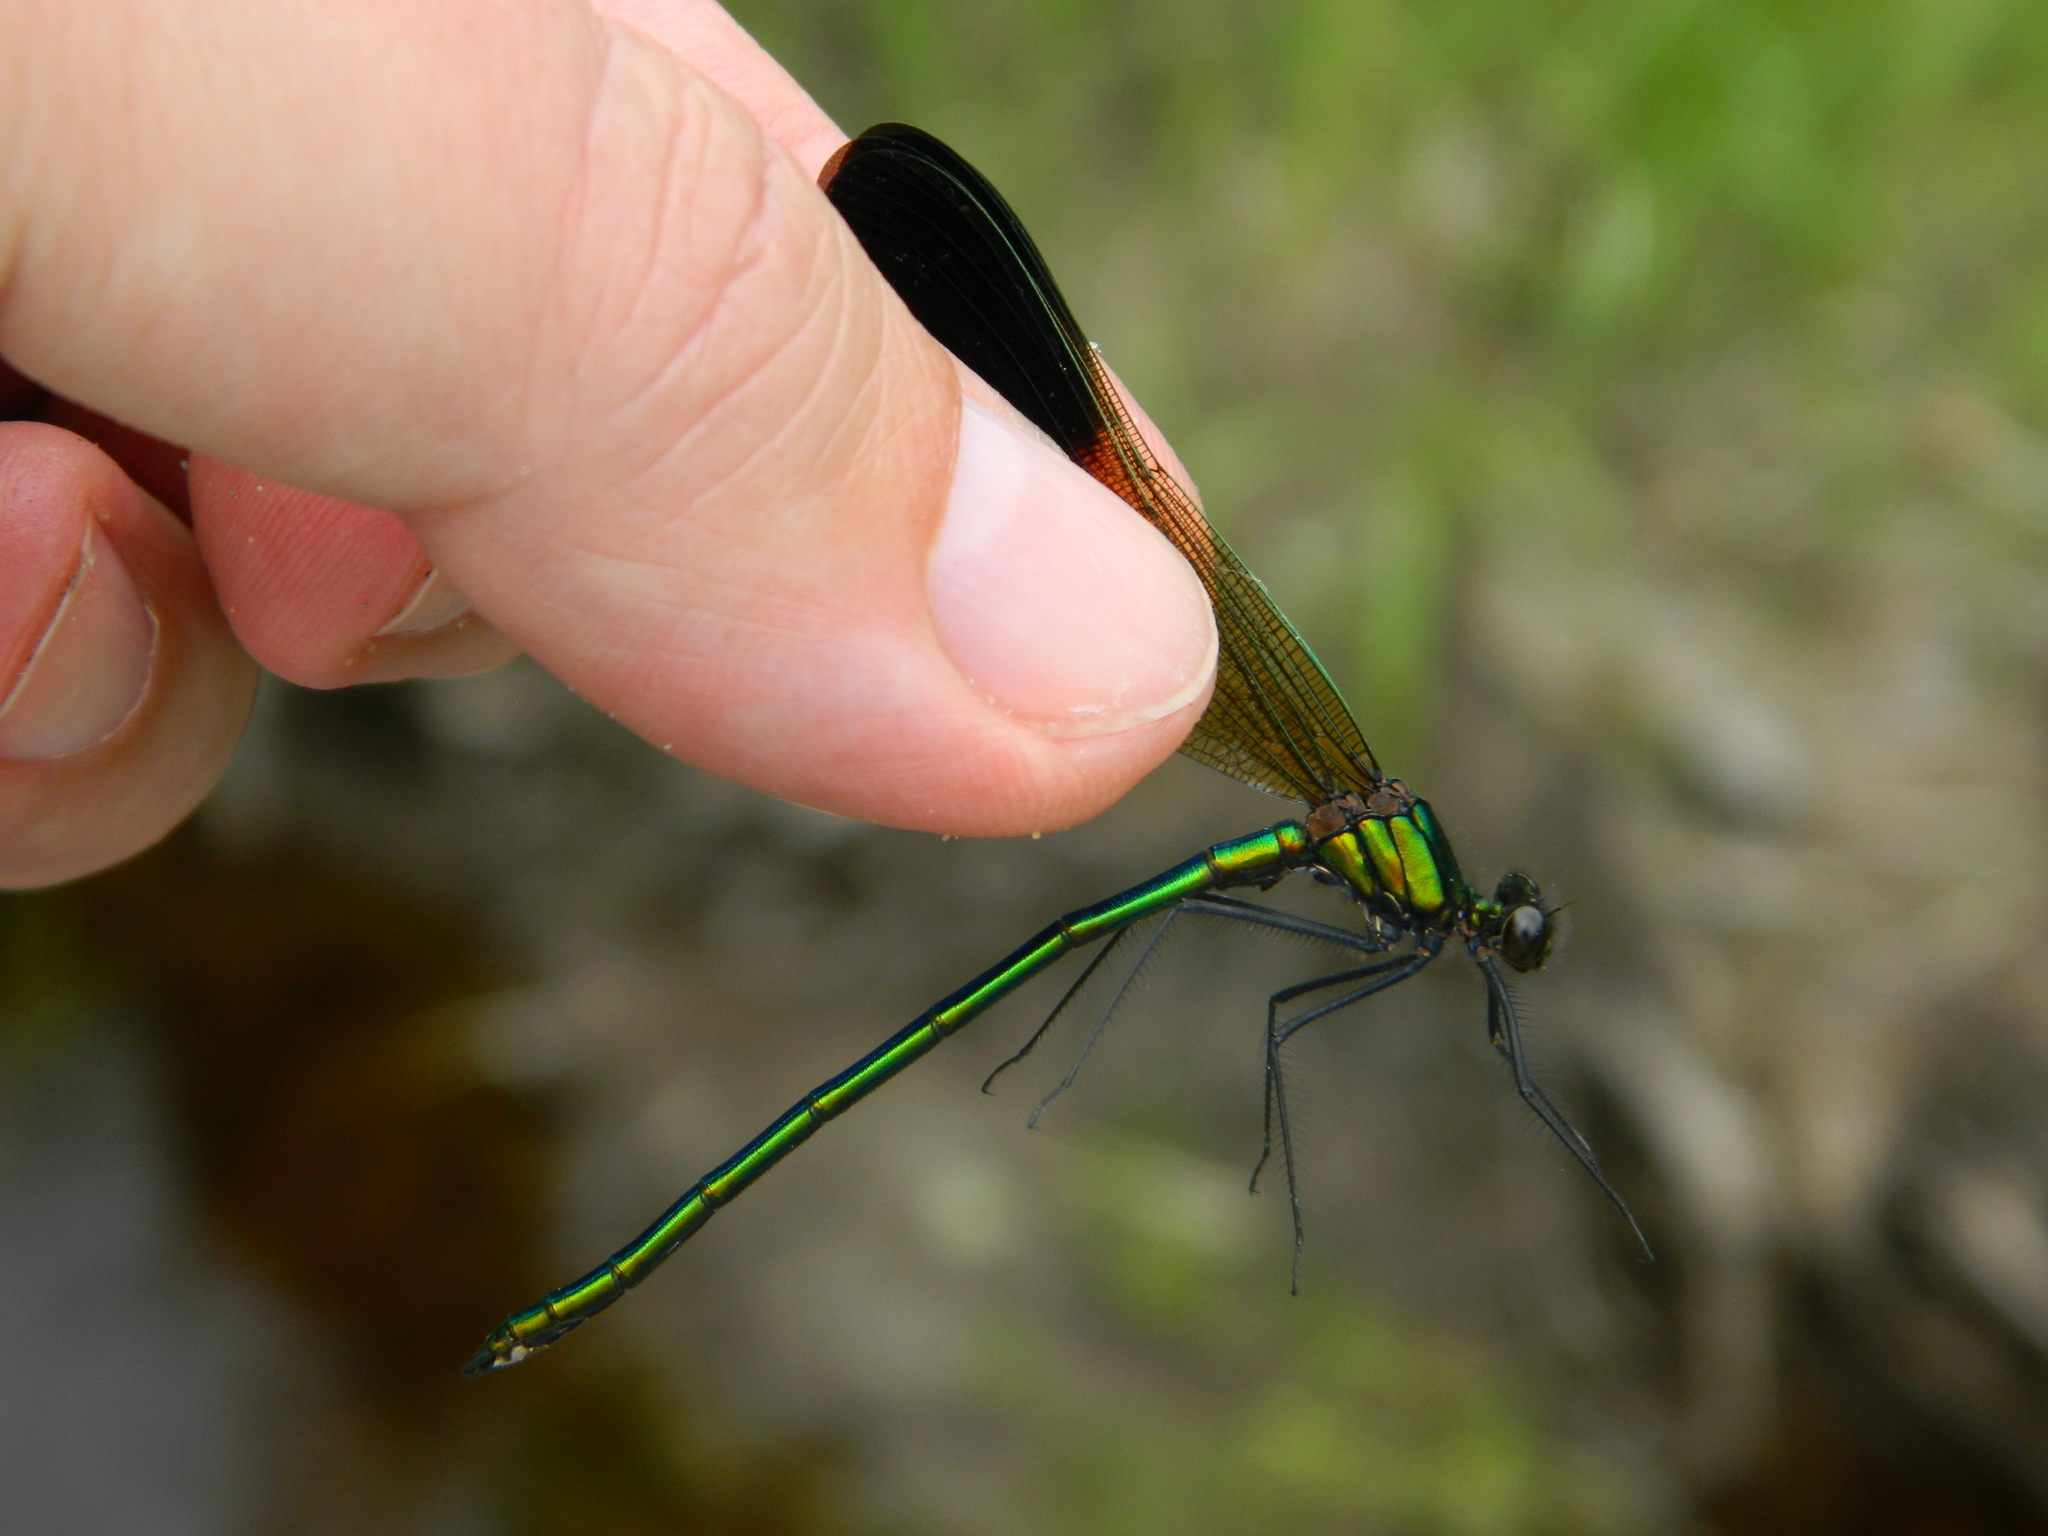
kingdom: Animalia
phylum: Arthropoda
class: Insecta
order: Odonata
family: Calopterygidae
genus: Calopteryx
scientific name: Calopteryx aequabilis
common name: River jewelwing
